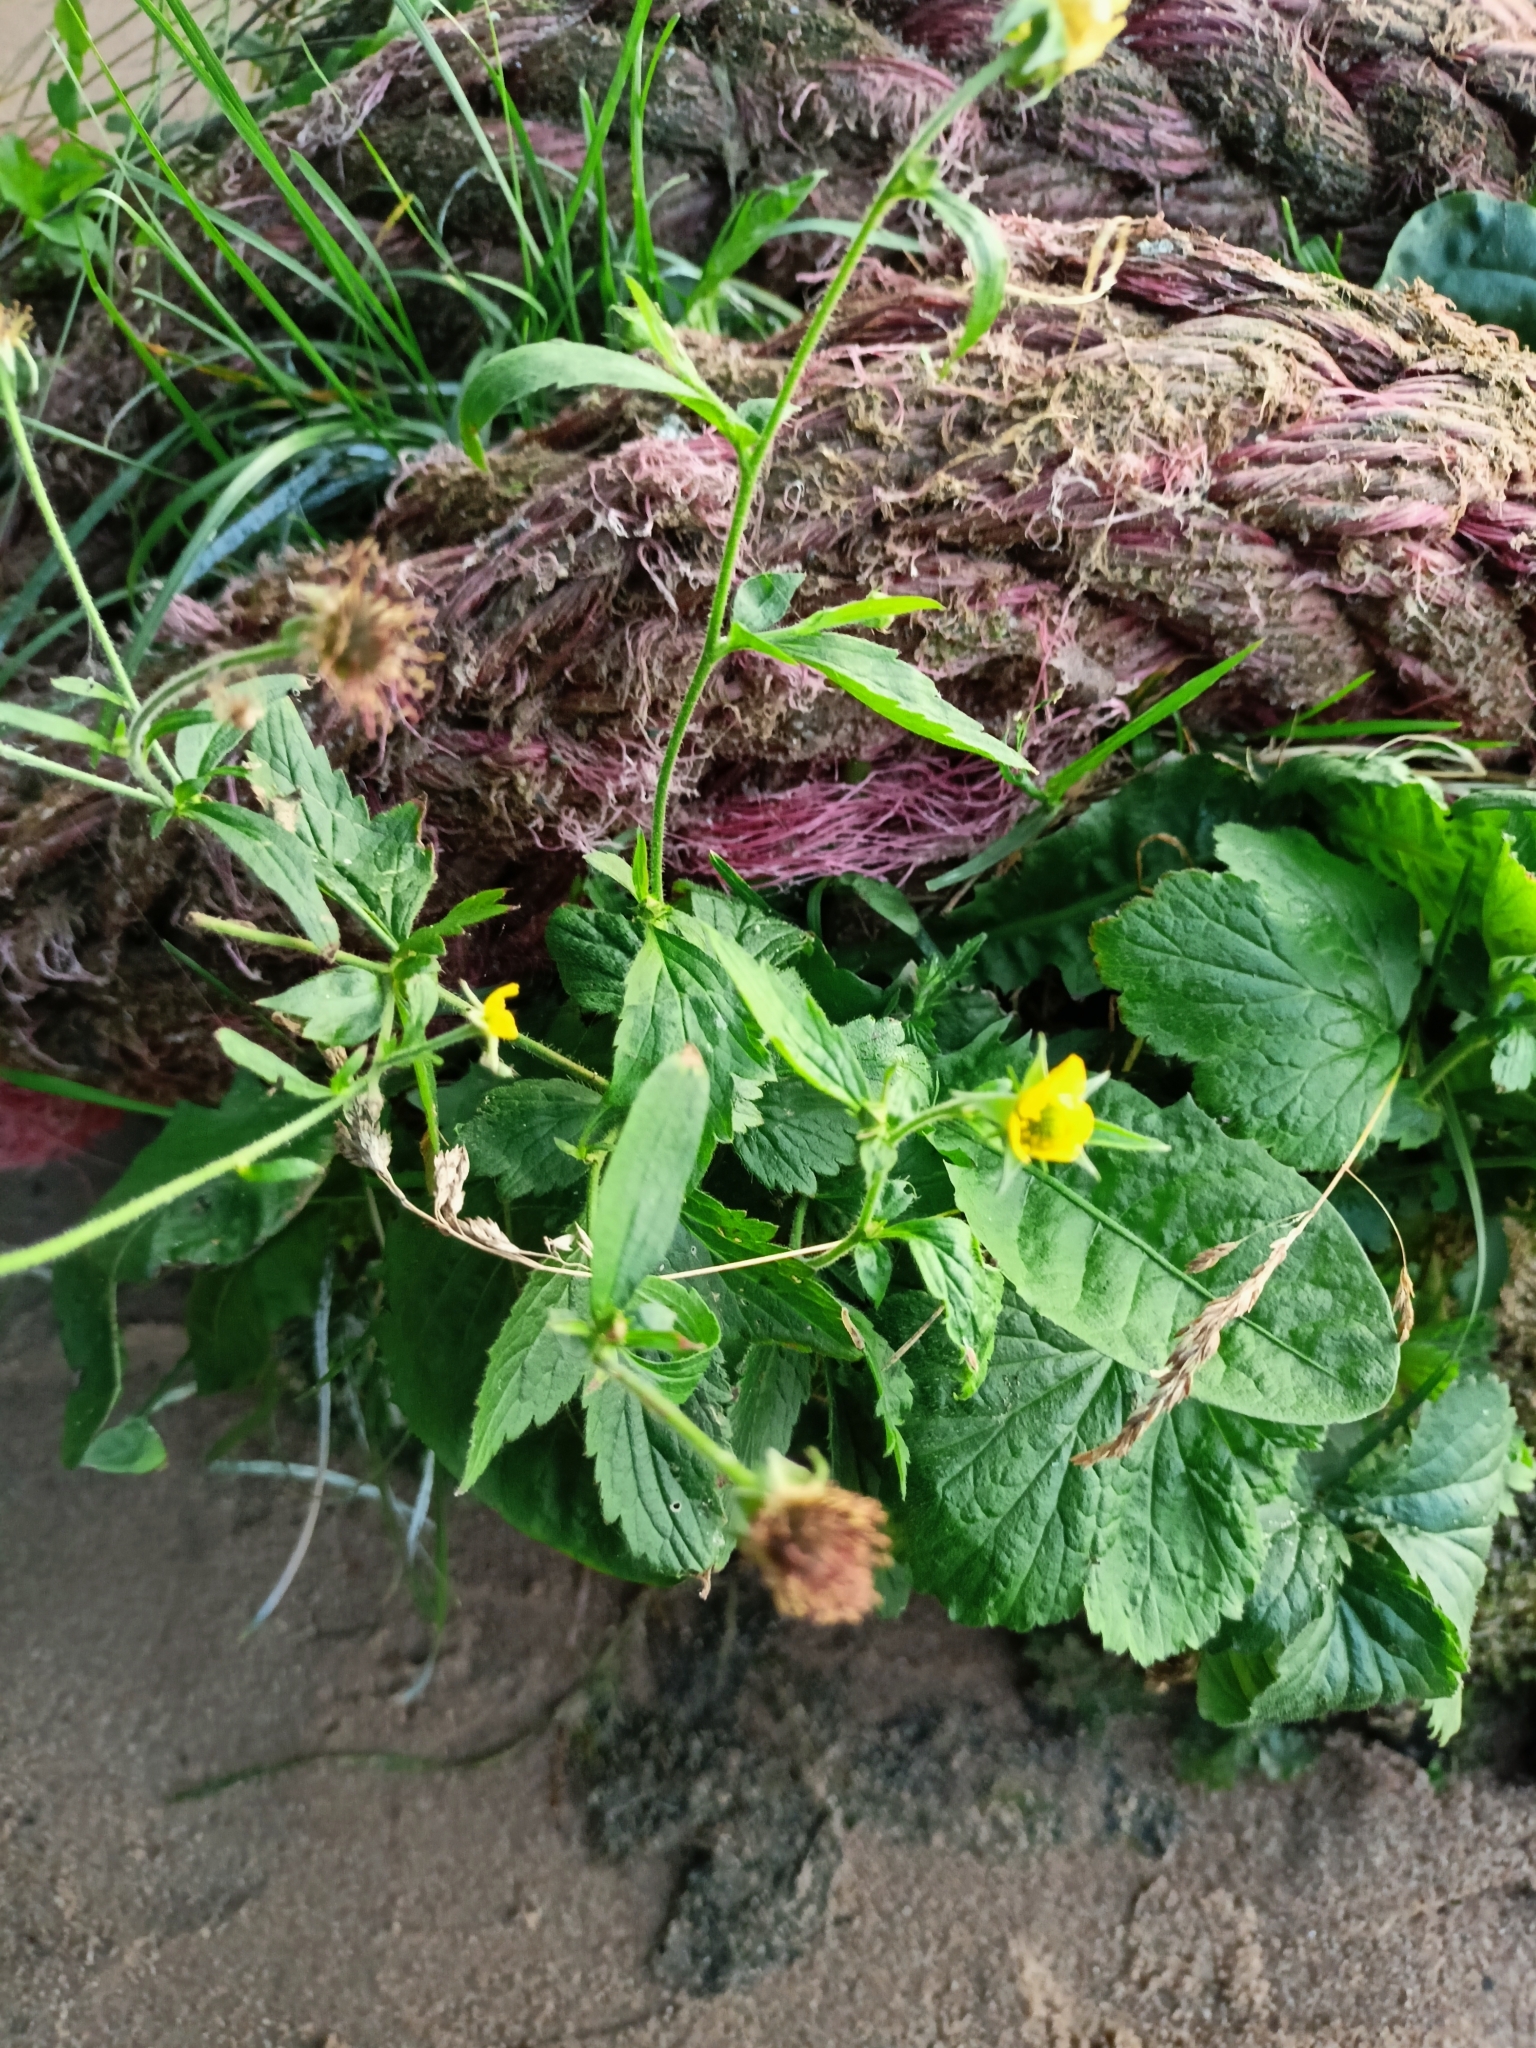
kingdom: Plantae
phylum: Tracheophyta
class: Magnoliopsida
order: Rosales
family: Rosaceae
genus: Geum
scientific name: Geum aleppicum
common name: Yellow avens
